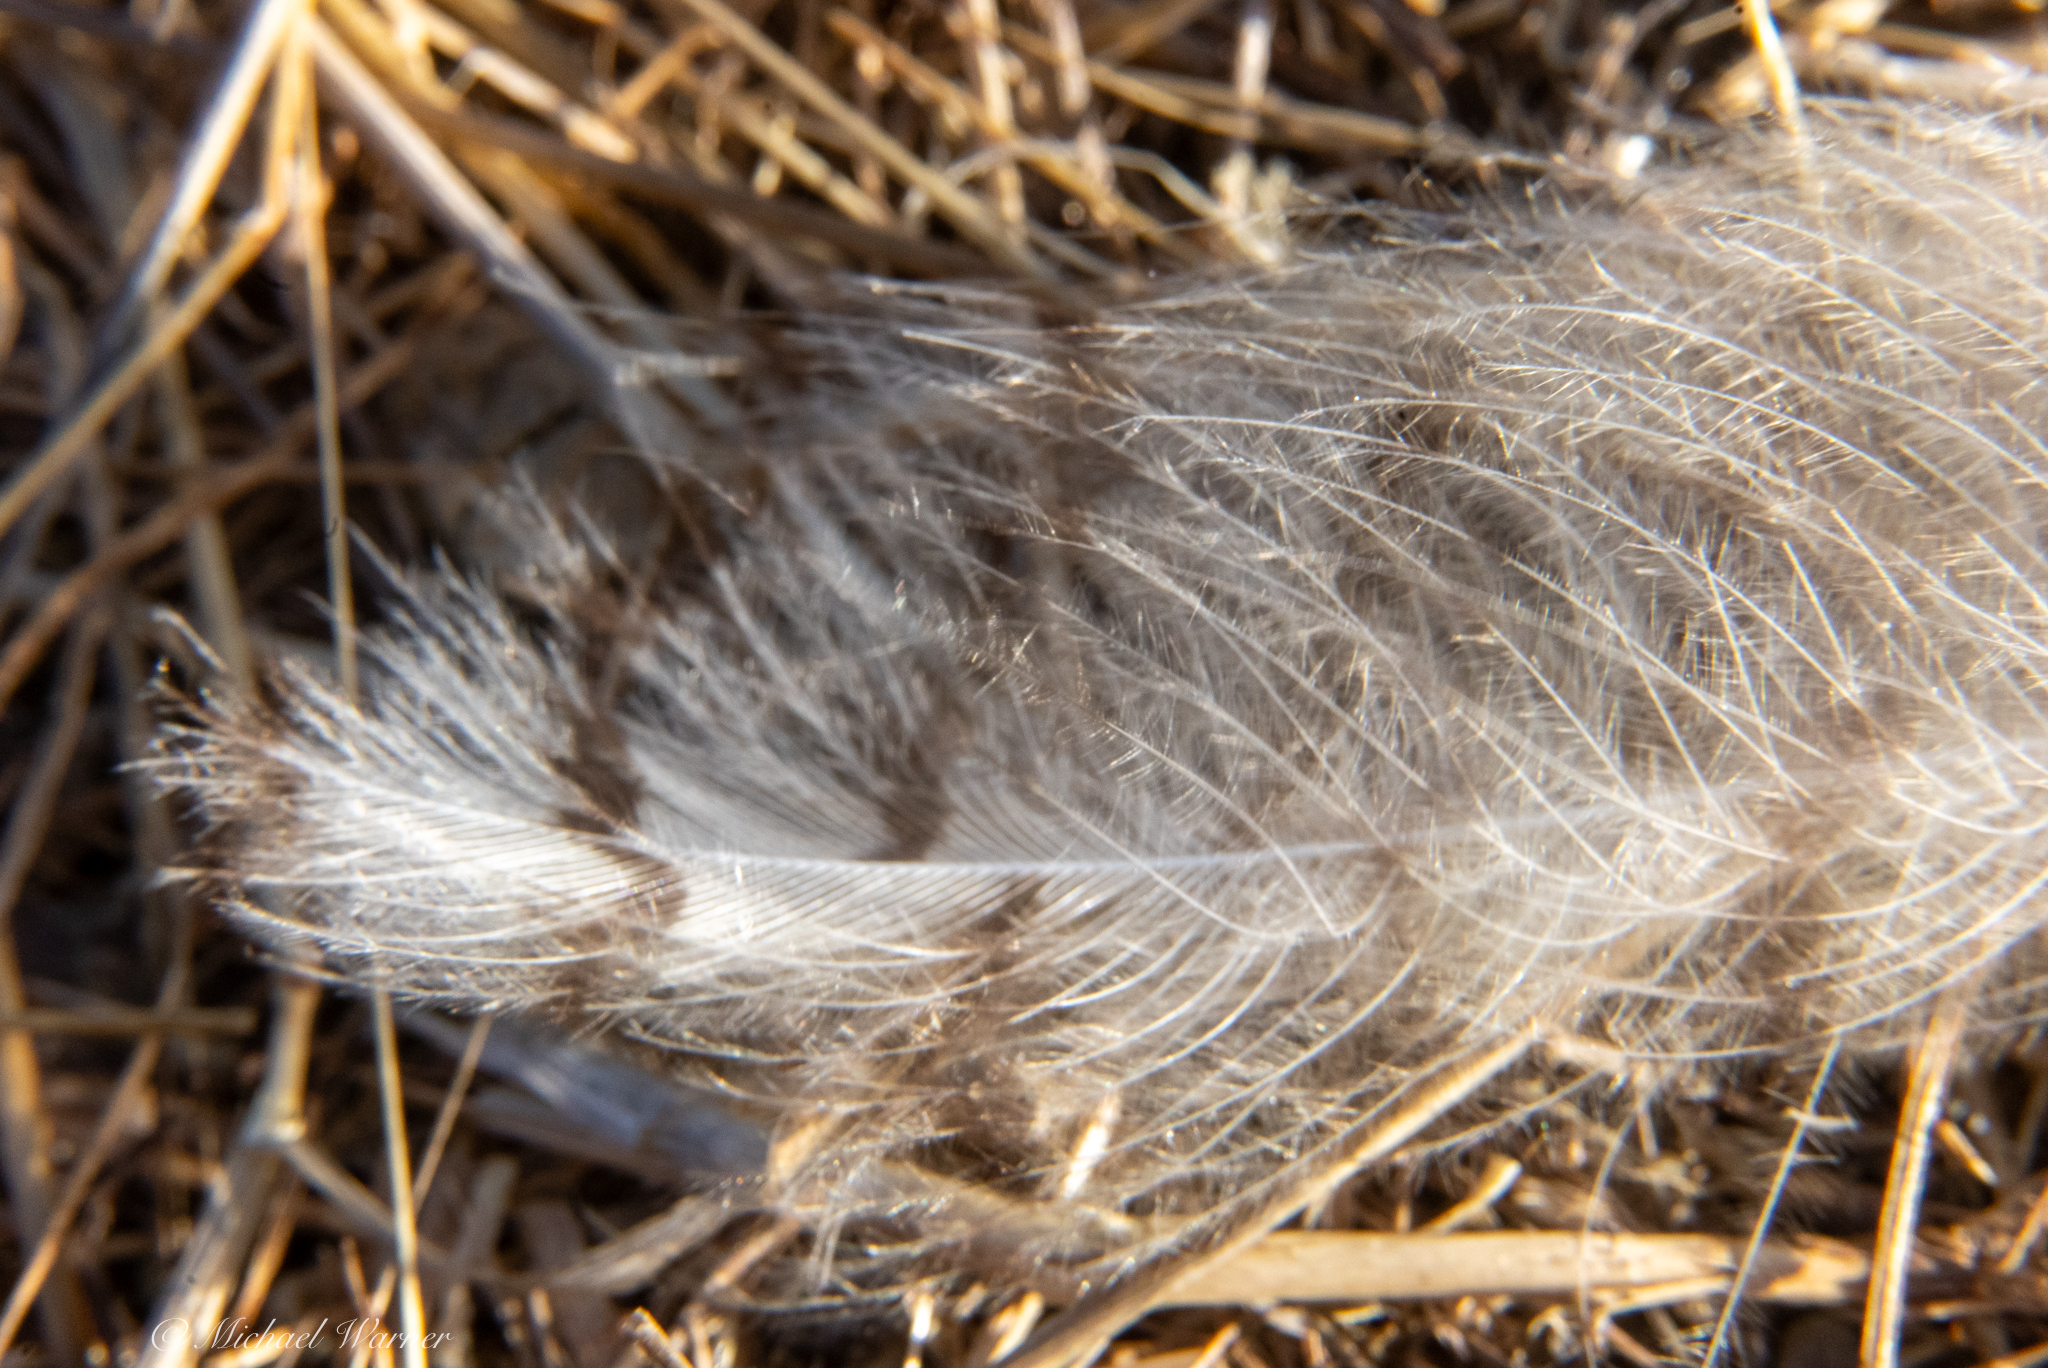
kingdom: Animalia
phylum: Chordata
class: Aves
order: Strigiformes
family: Strigidae
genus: Bubo
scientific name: Bubo virginianus
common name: Great horned owl
